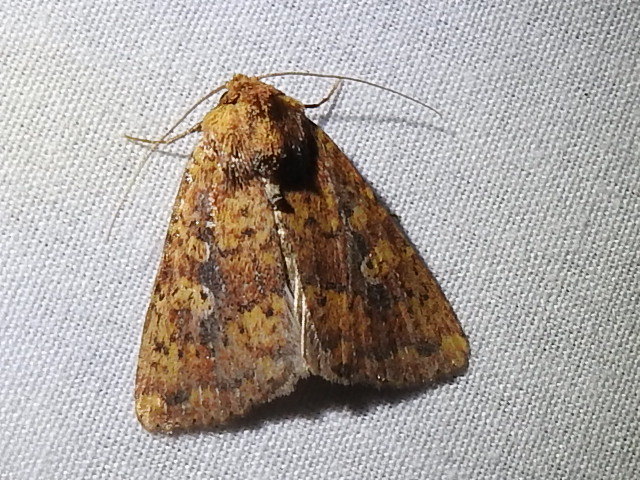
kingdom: Animalia
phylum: Arthropoda
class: Insecta
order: Lepidoptera
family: Noctuidae
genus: Perigea
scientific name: Perigea xanthioides
